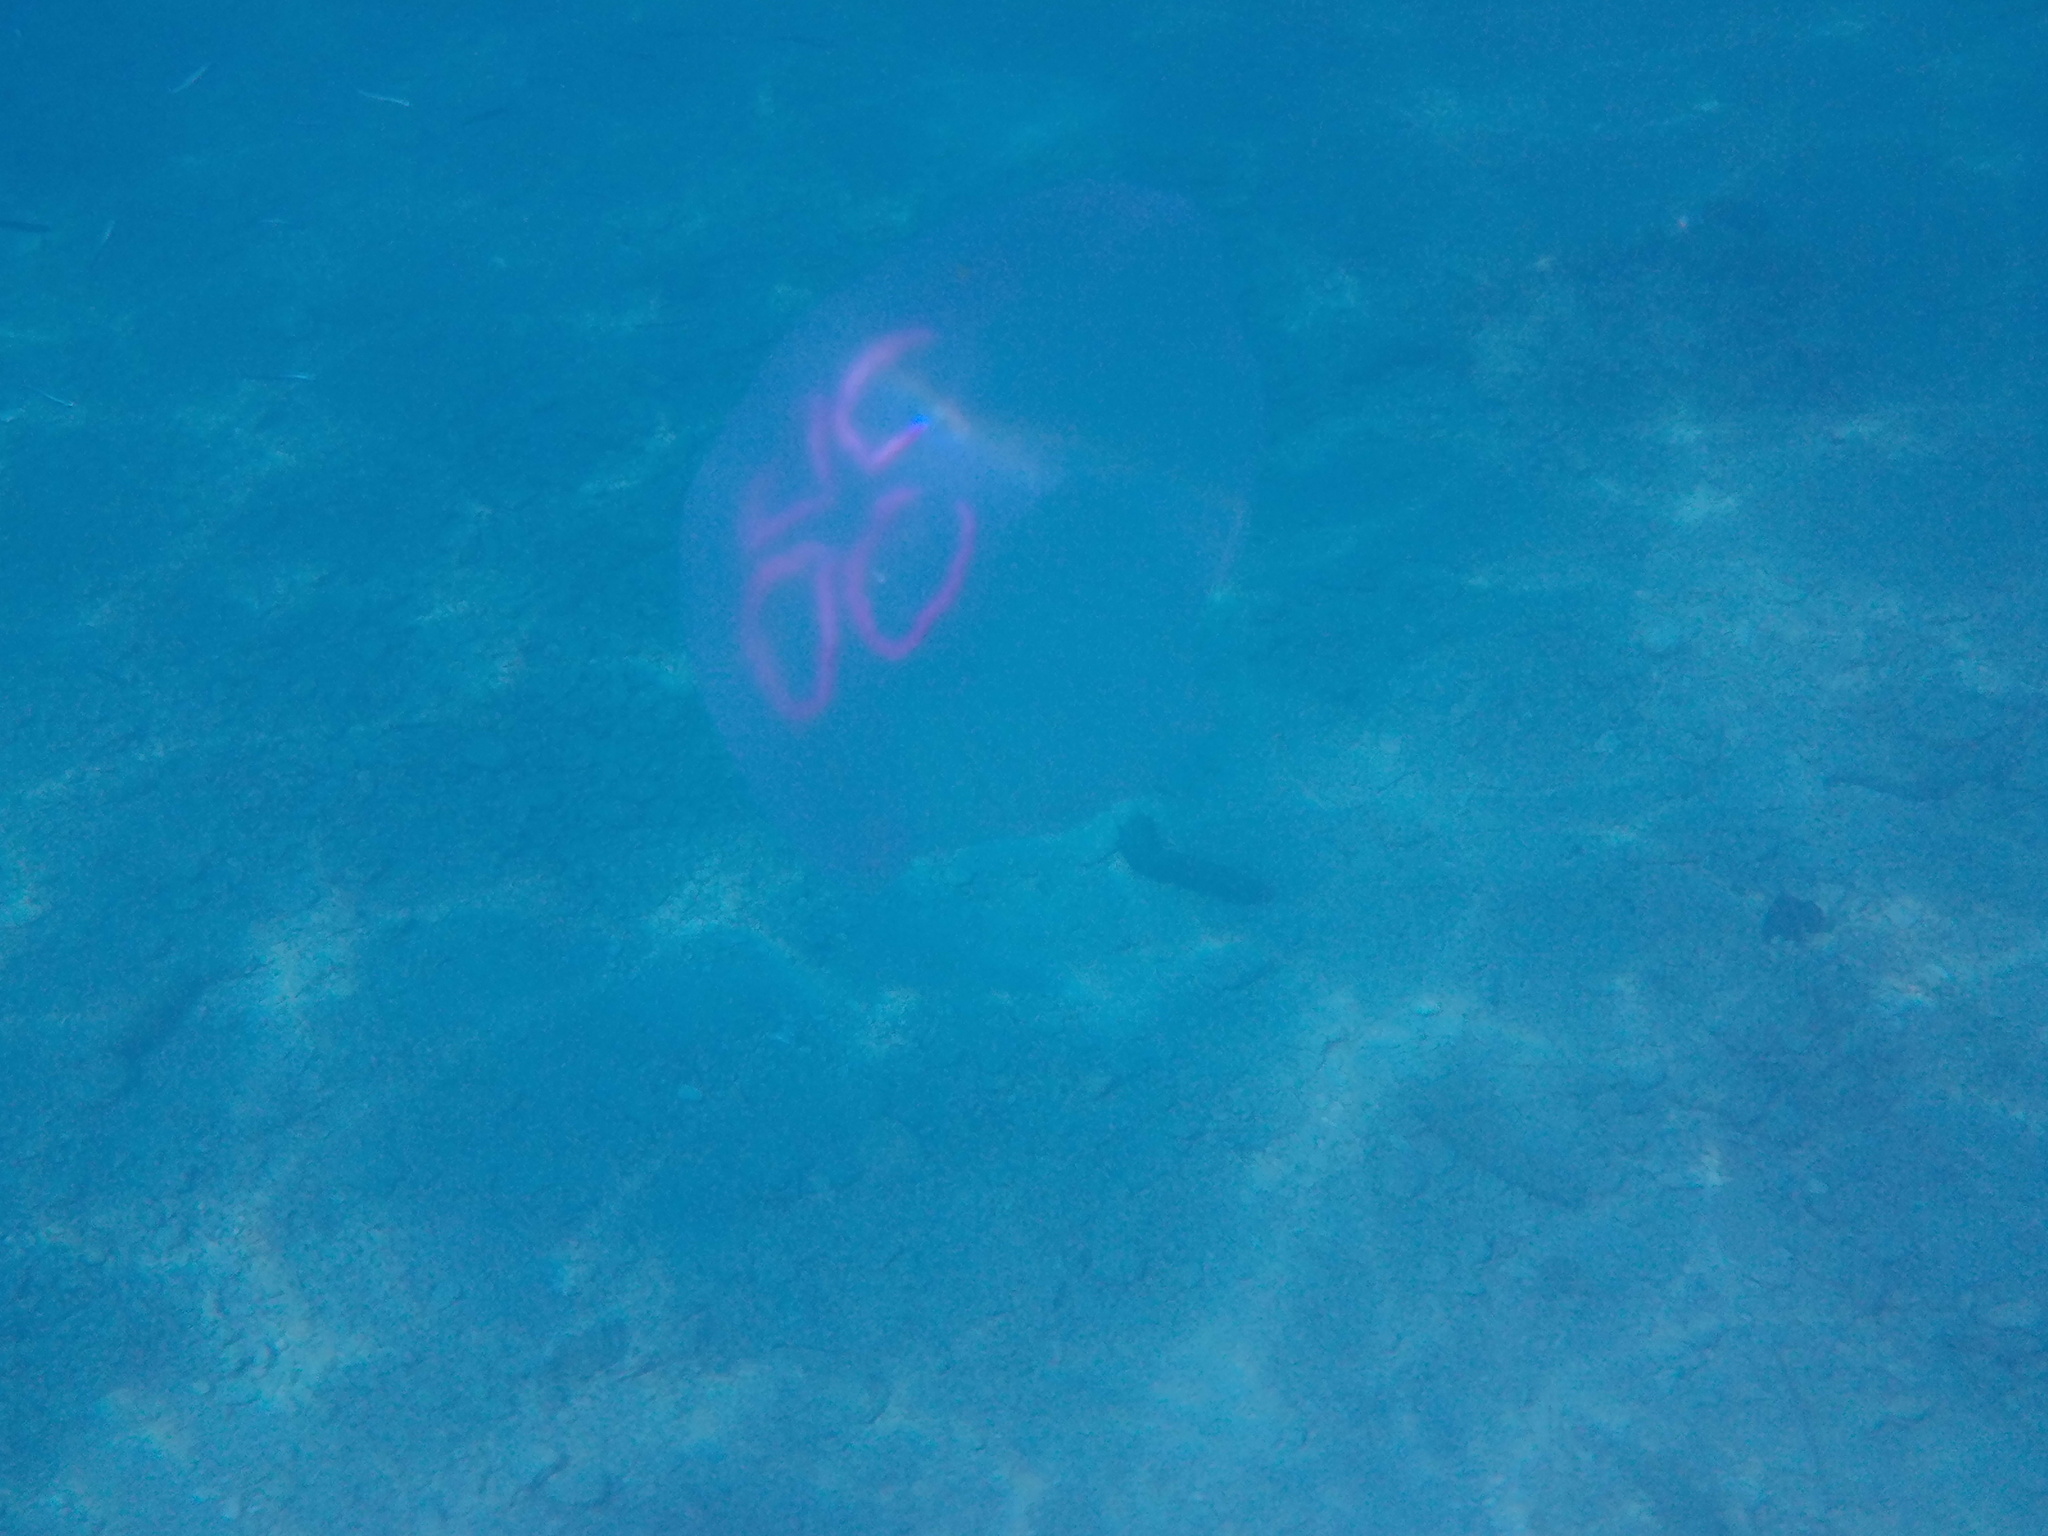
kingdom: Animalia
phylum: Cnidaria
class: Scyphozoa
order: Semaeostomeae
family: Ulmaridae
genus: Aurelia
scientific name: Aurelia aurita
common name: Moon jellyfish
